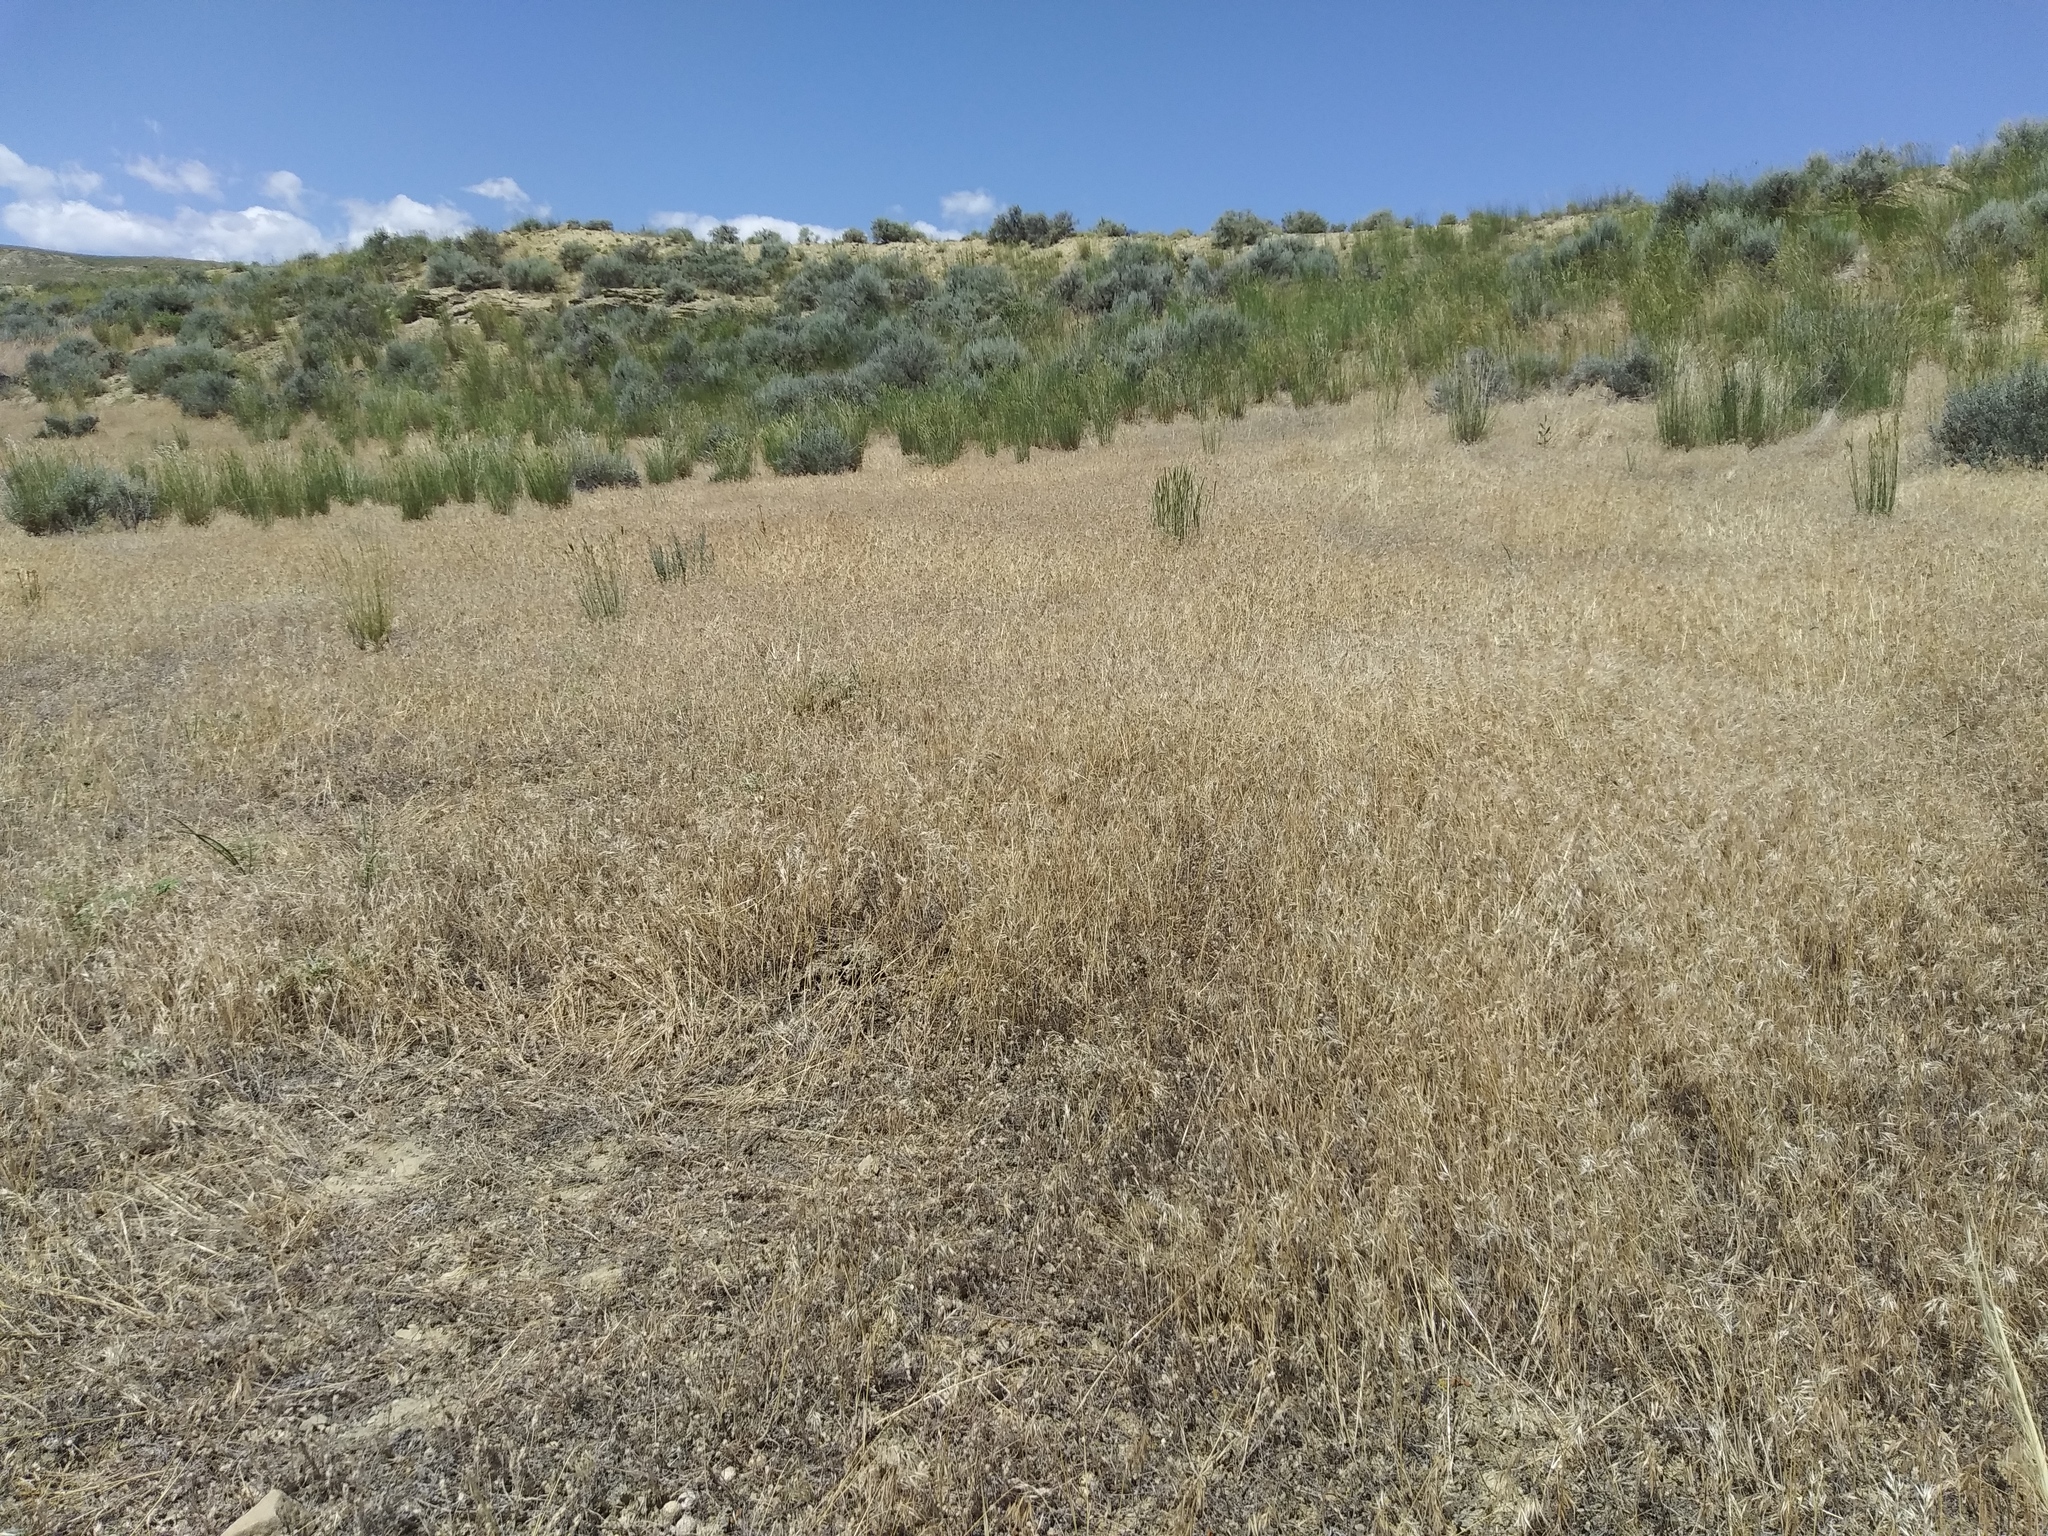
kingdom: Plantae
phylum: Tracheophyta
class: Liliopsida
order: Poales
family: Poaceae
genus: Bromus
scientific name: Bromus tectorum
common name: Cheatgrass
